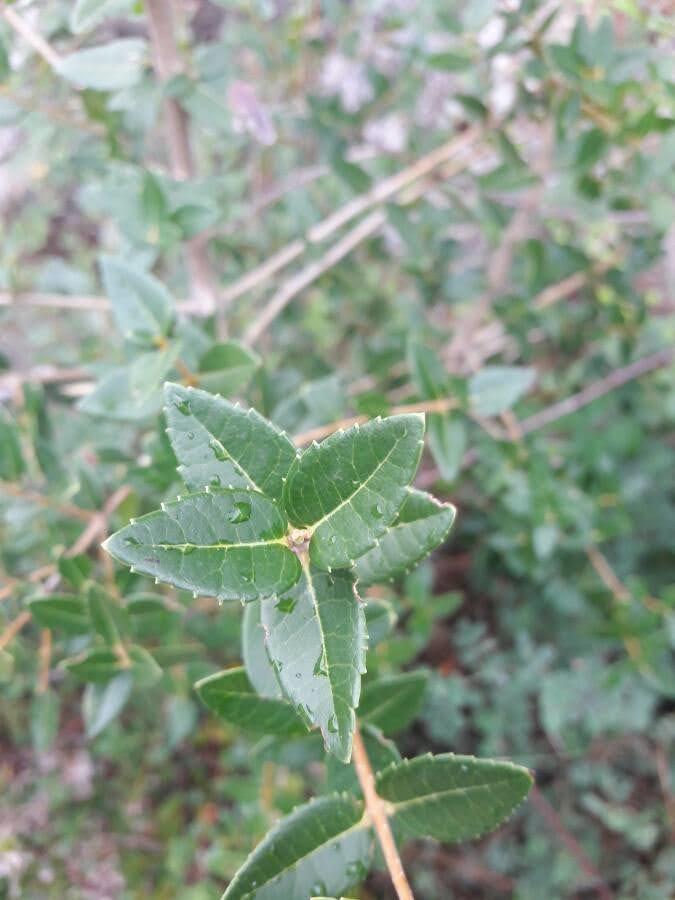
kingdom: Plantae
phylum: Tracheophyta
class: Magnoliopsida
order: Lamiales
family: Oleaceae
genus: Phillyrea
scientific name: Phillyrea latifolia
